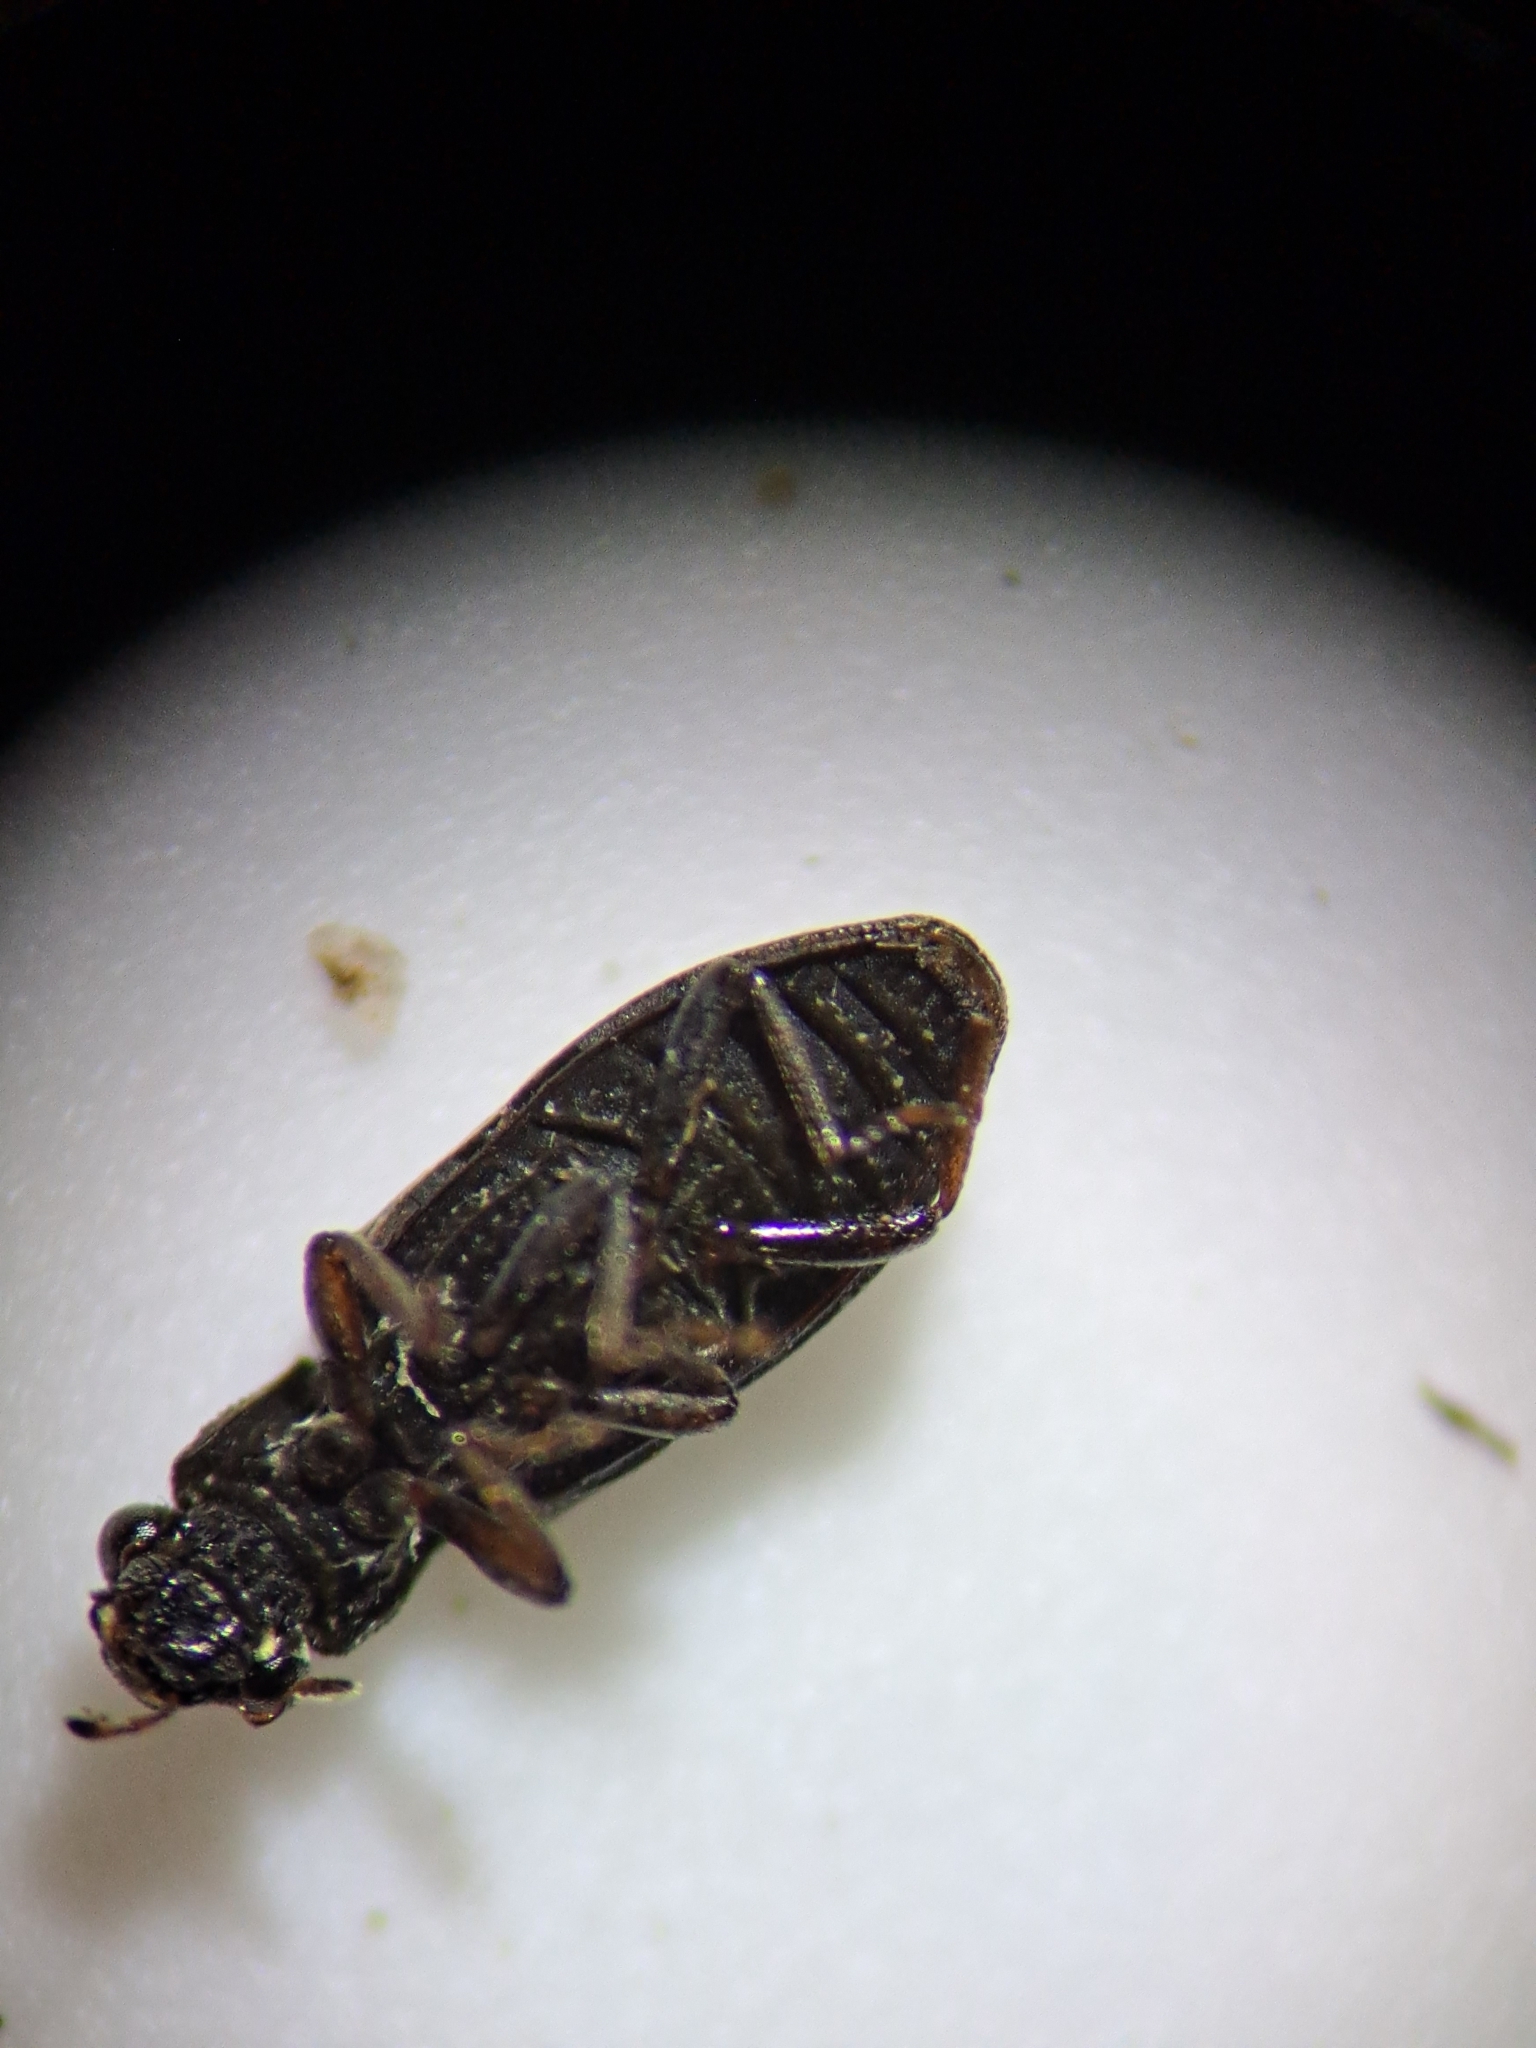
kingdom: Animalia
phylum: Arthropoda
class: Insecta
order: Coleoptera
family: Hydrochidae
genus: Hydrochus
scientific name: Hydrochus
